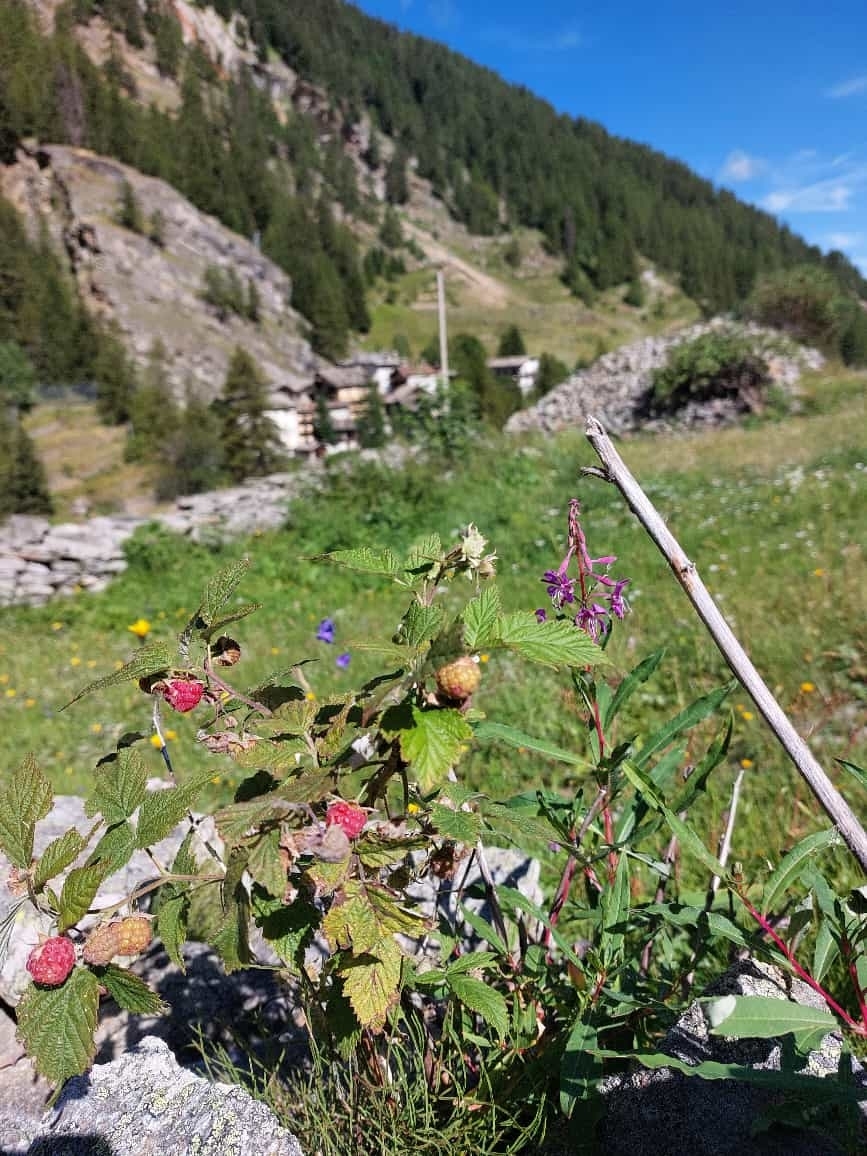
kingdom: Plantae
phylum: Tracheophyta
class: Magnoliopsida
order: Rosales
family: Rosaceae
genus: Rubus
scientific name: Rubus idaeus
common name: Raspberry
